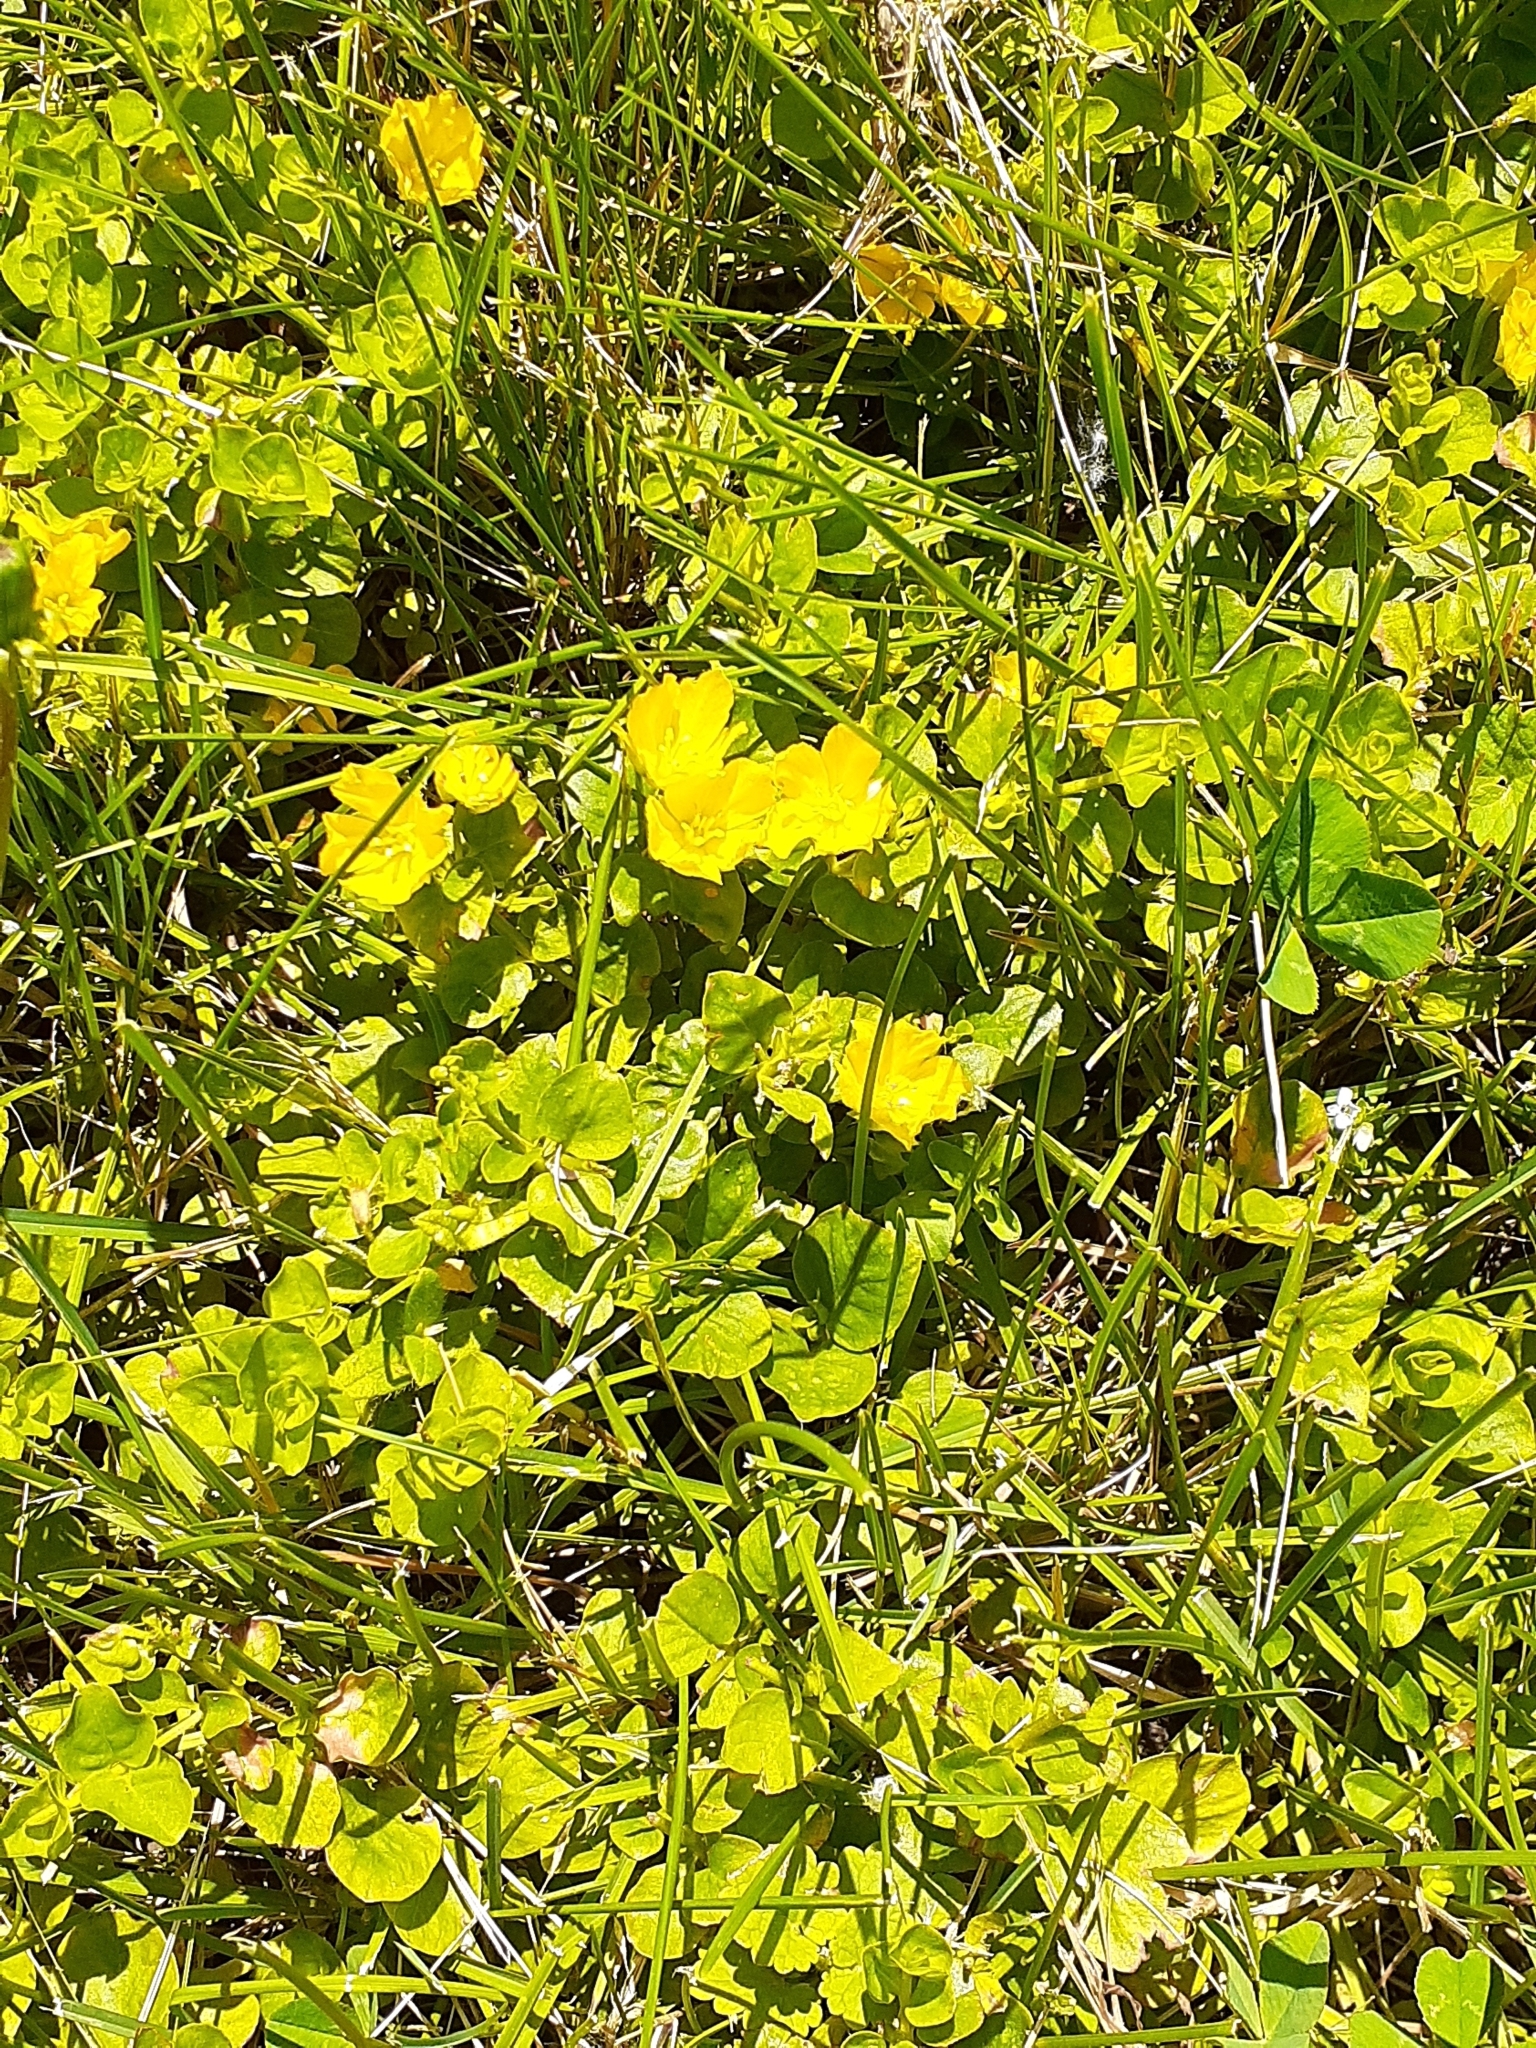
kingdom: Plantae
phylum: Tracheophyta
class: Magnoliopsida
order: Ericales
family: Primulaceae
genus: Lysimachia
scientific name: Lysimachia nummularia
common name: Moneywort
